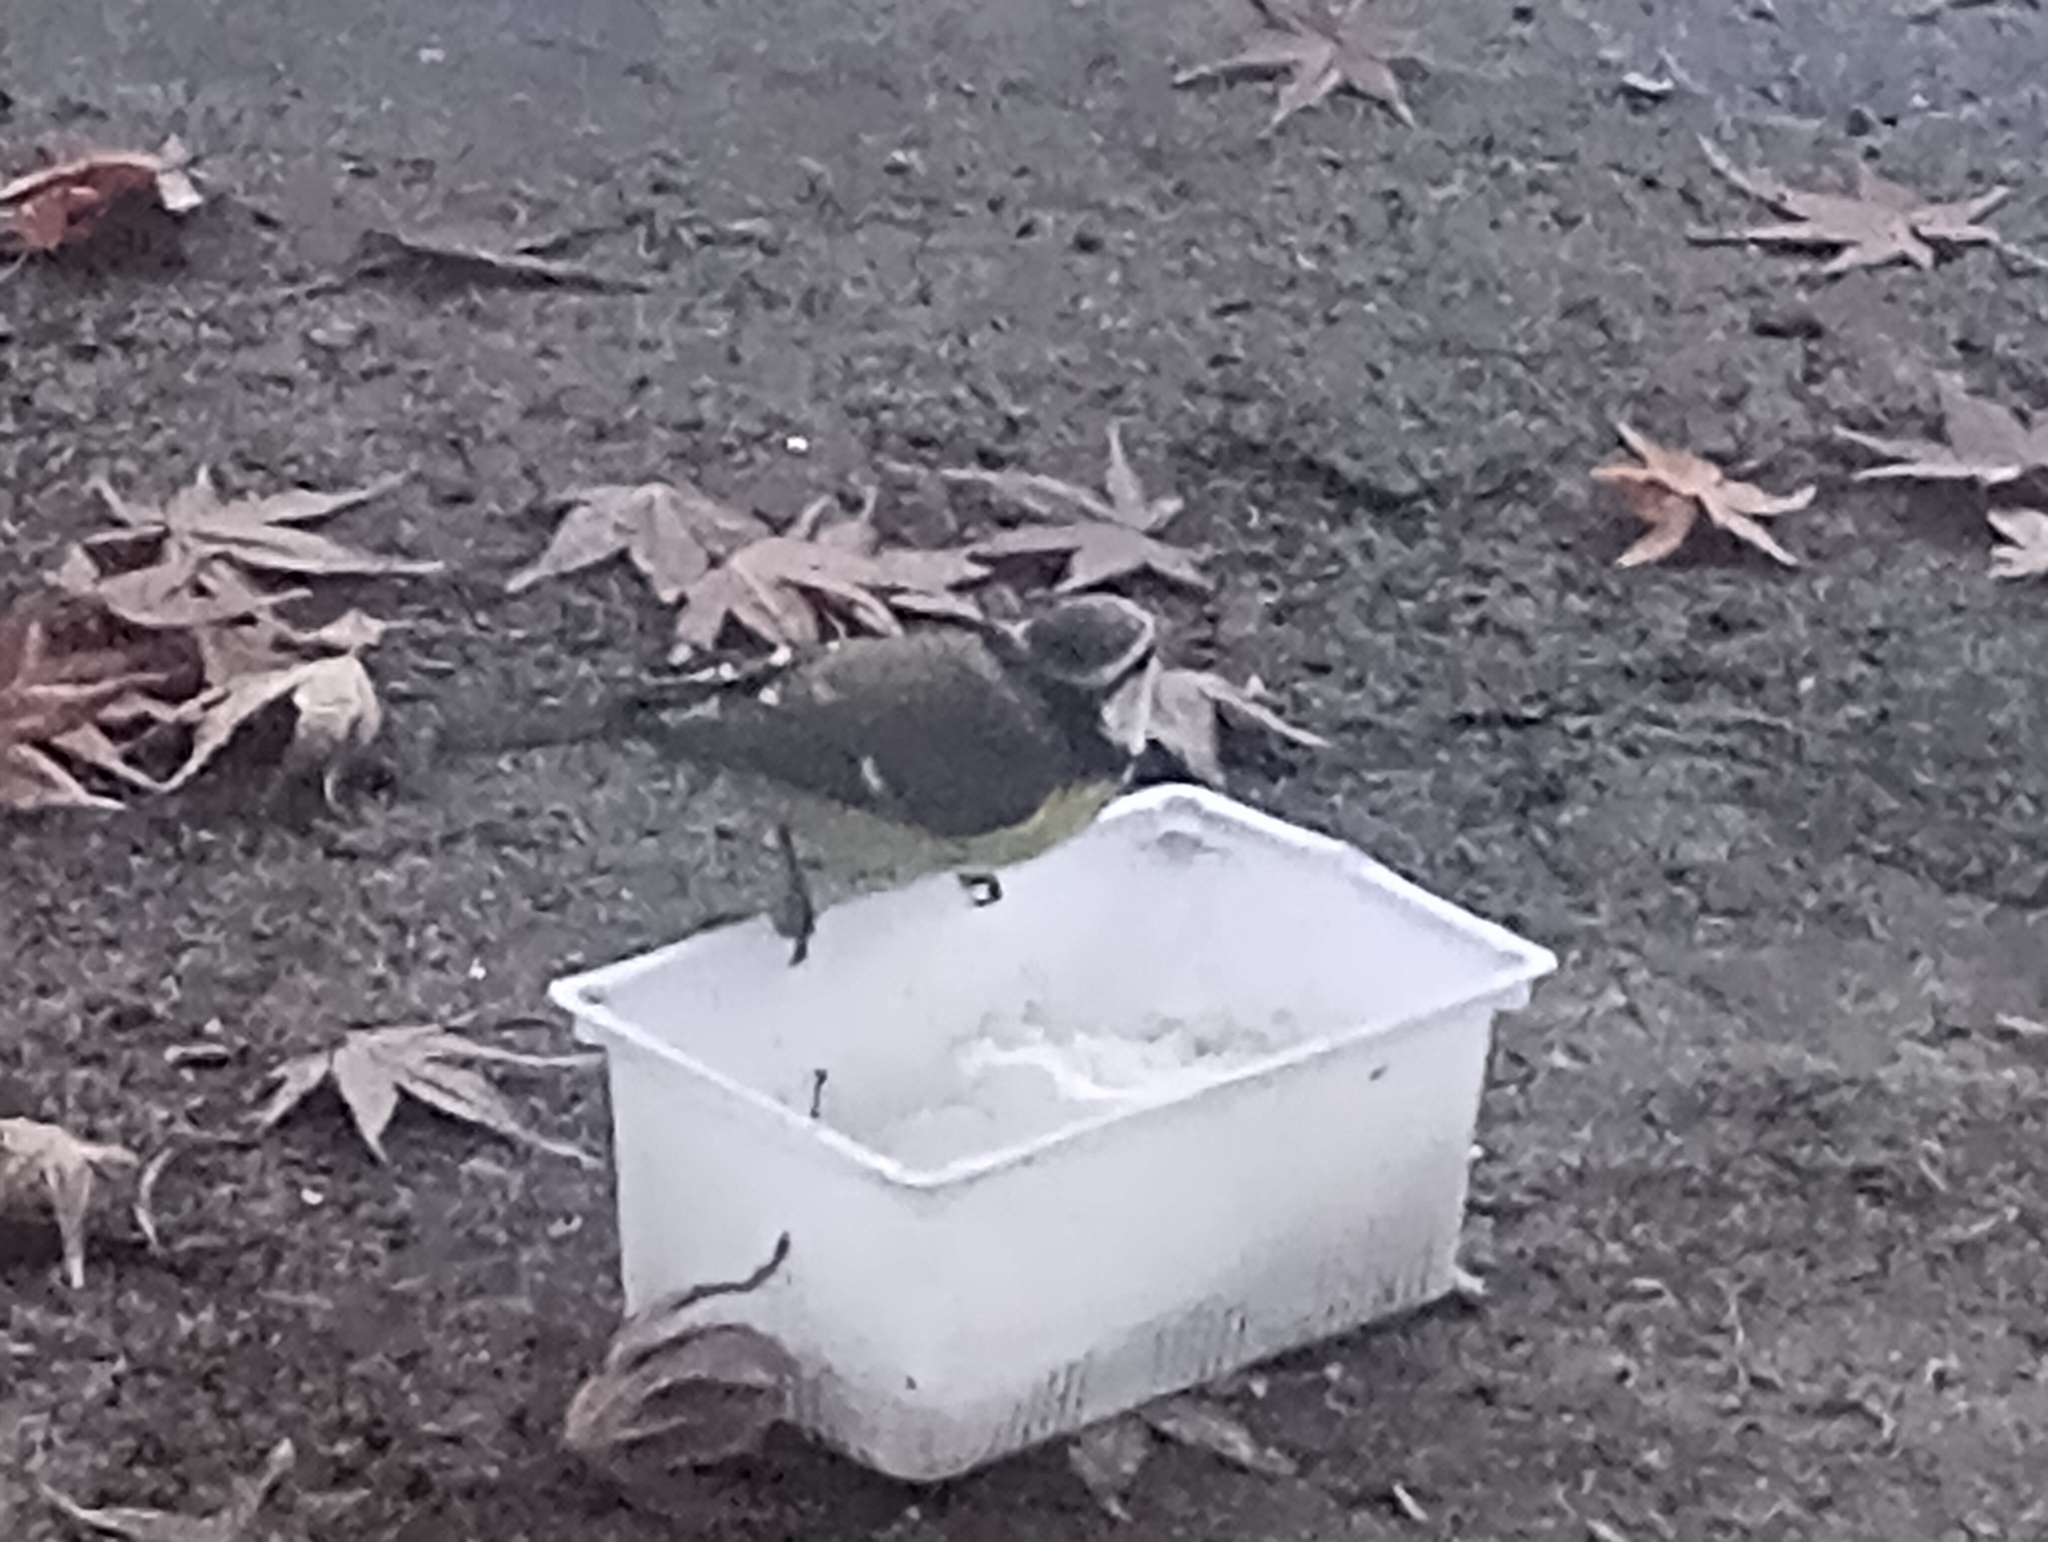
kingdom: Animalia
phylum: Chordata
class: Aves
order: Passeriformes
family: Paridae
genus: Cyanistes
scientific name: Cyanistes caeruleus
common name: Eurasian blue tit
